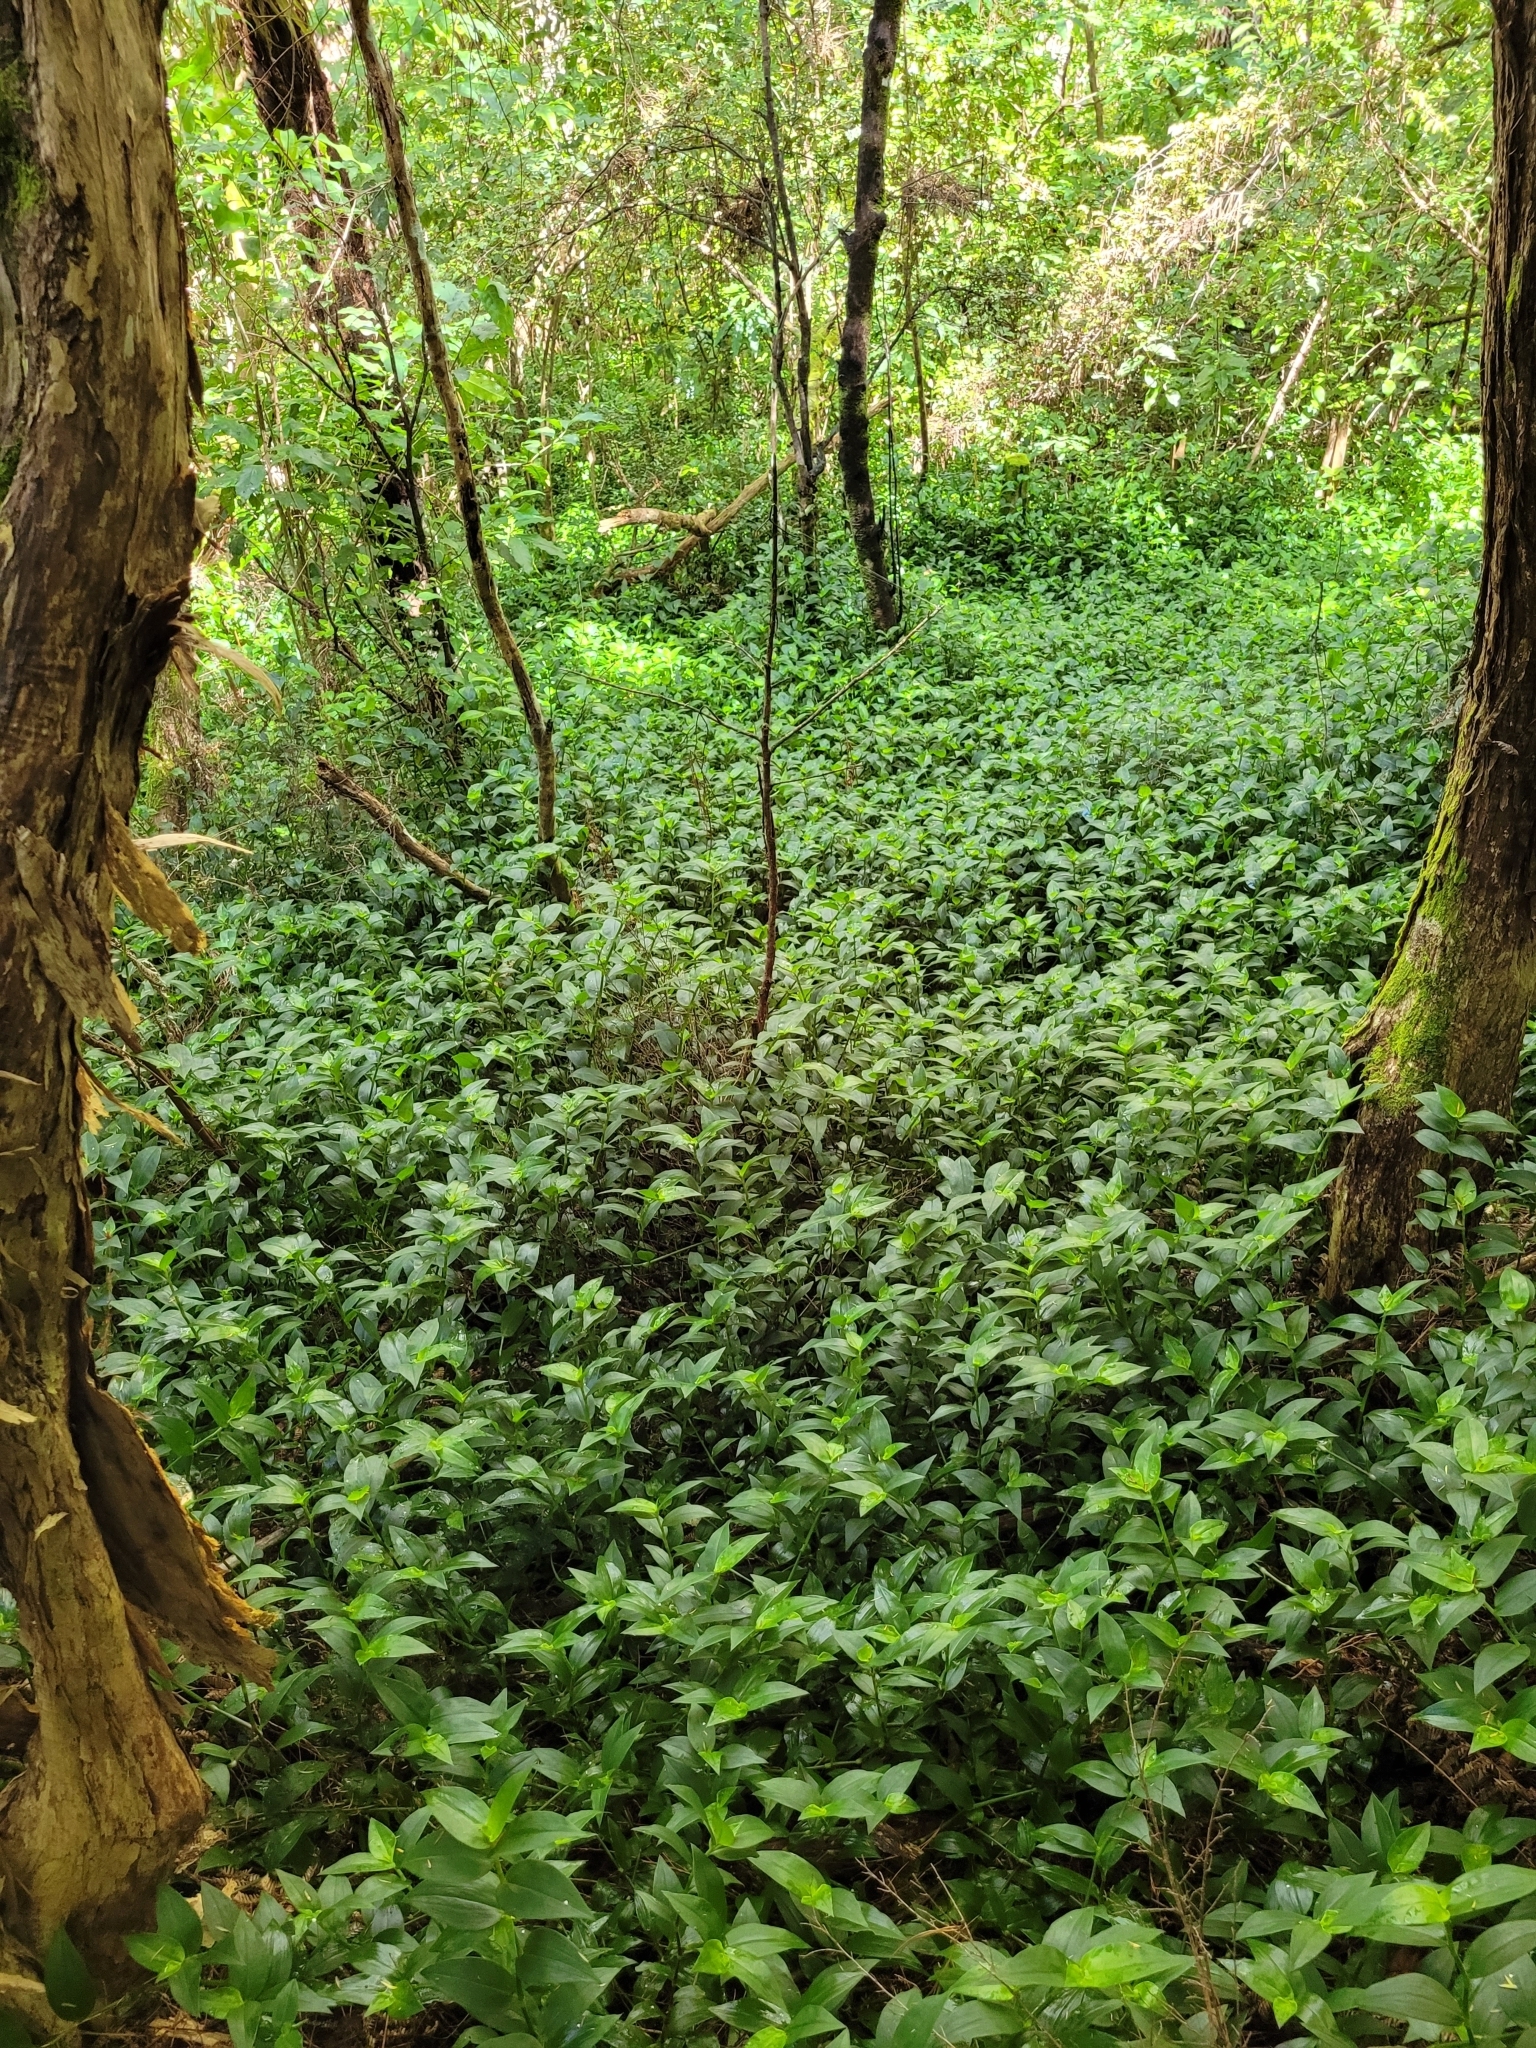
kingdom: Plantae
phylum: Tracheophyta
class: Liliopsida
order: Commelinales
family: Commelinaceae
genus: Tradescantia
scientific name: Tradescantia fluminensis
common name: Wandering-jew
